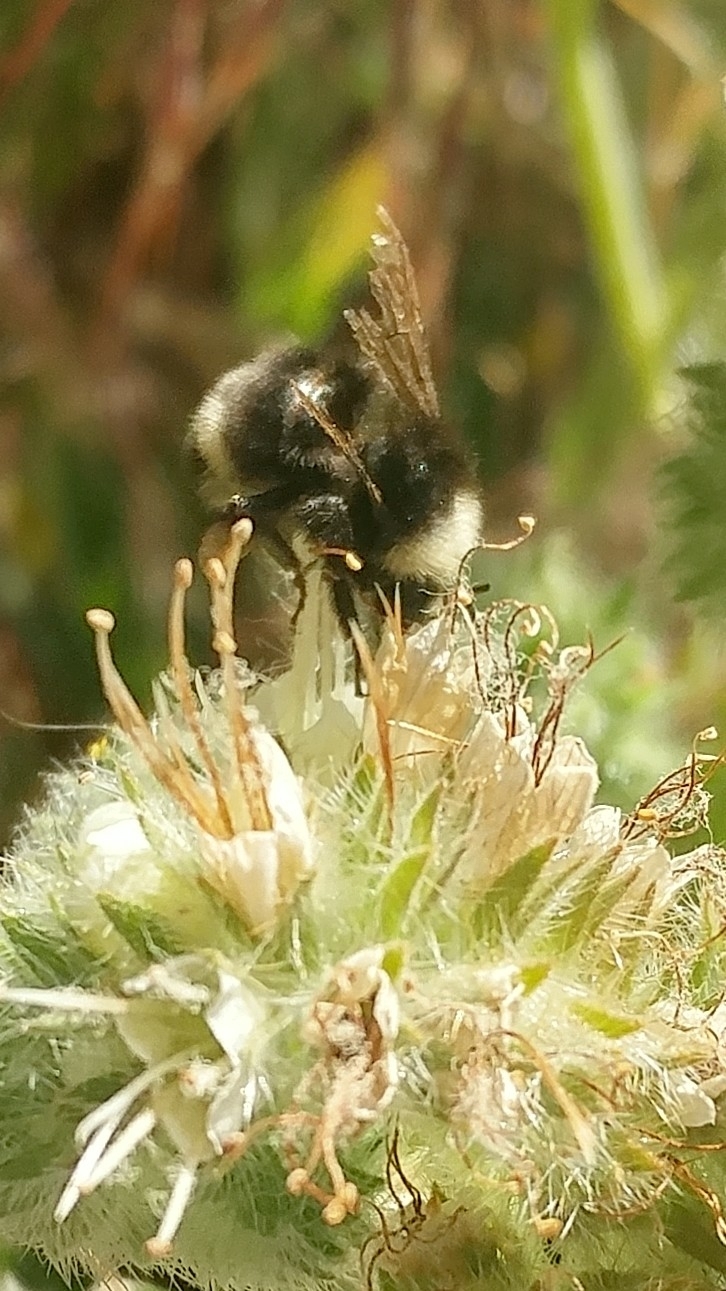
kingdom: Animalia
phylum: Arthropoda
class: Insecta
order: Hymenoptera
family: Apidae
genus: Bombus
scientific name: Bombus vandykei
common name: Van dyke bumble bee
